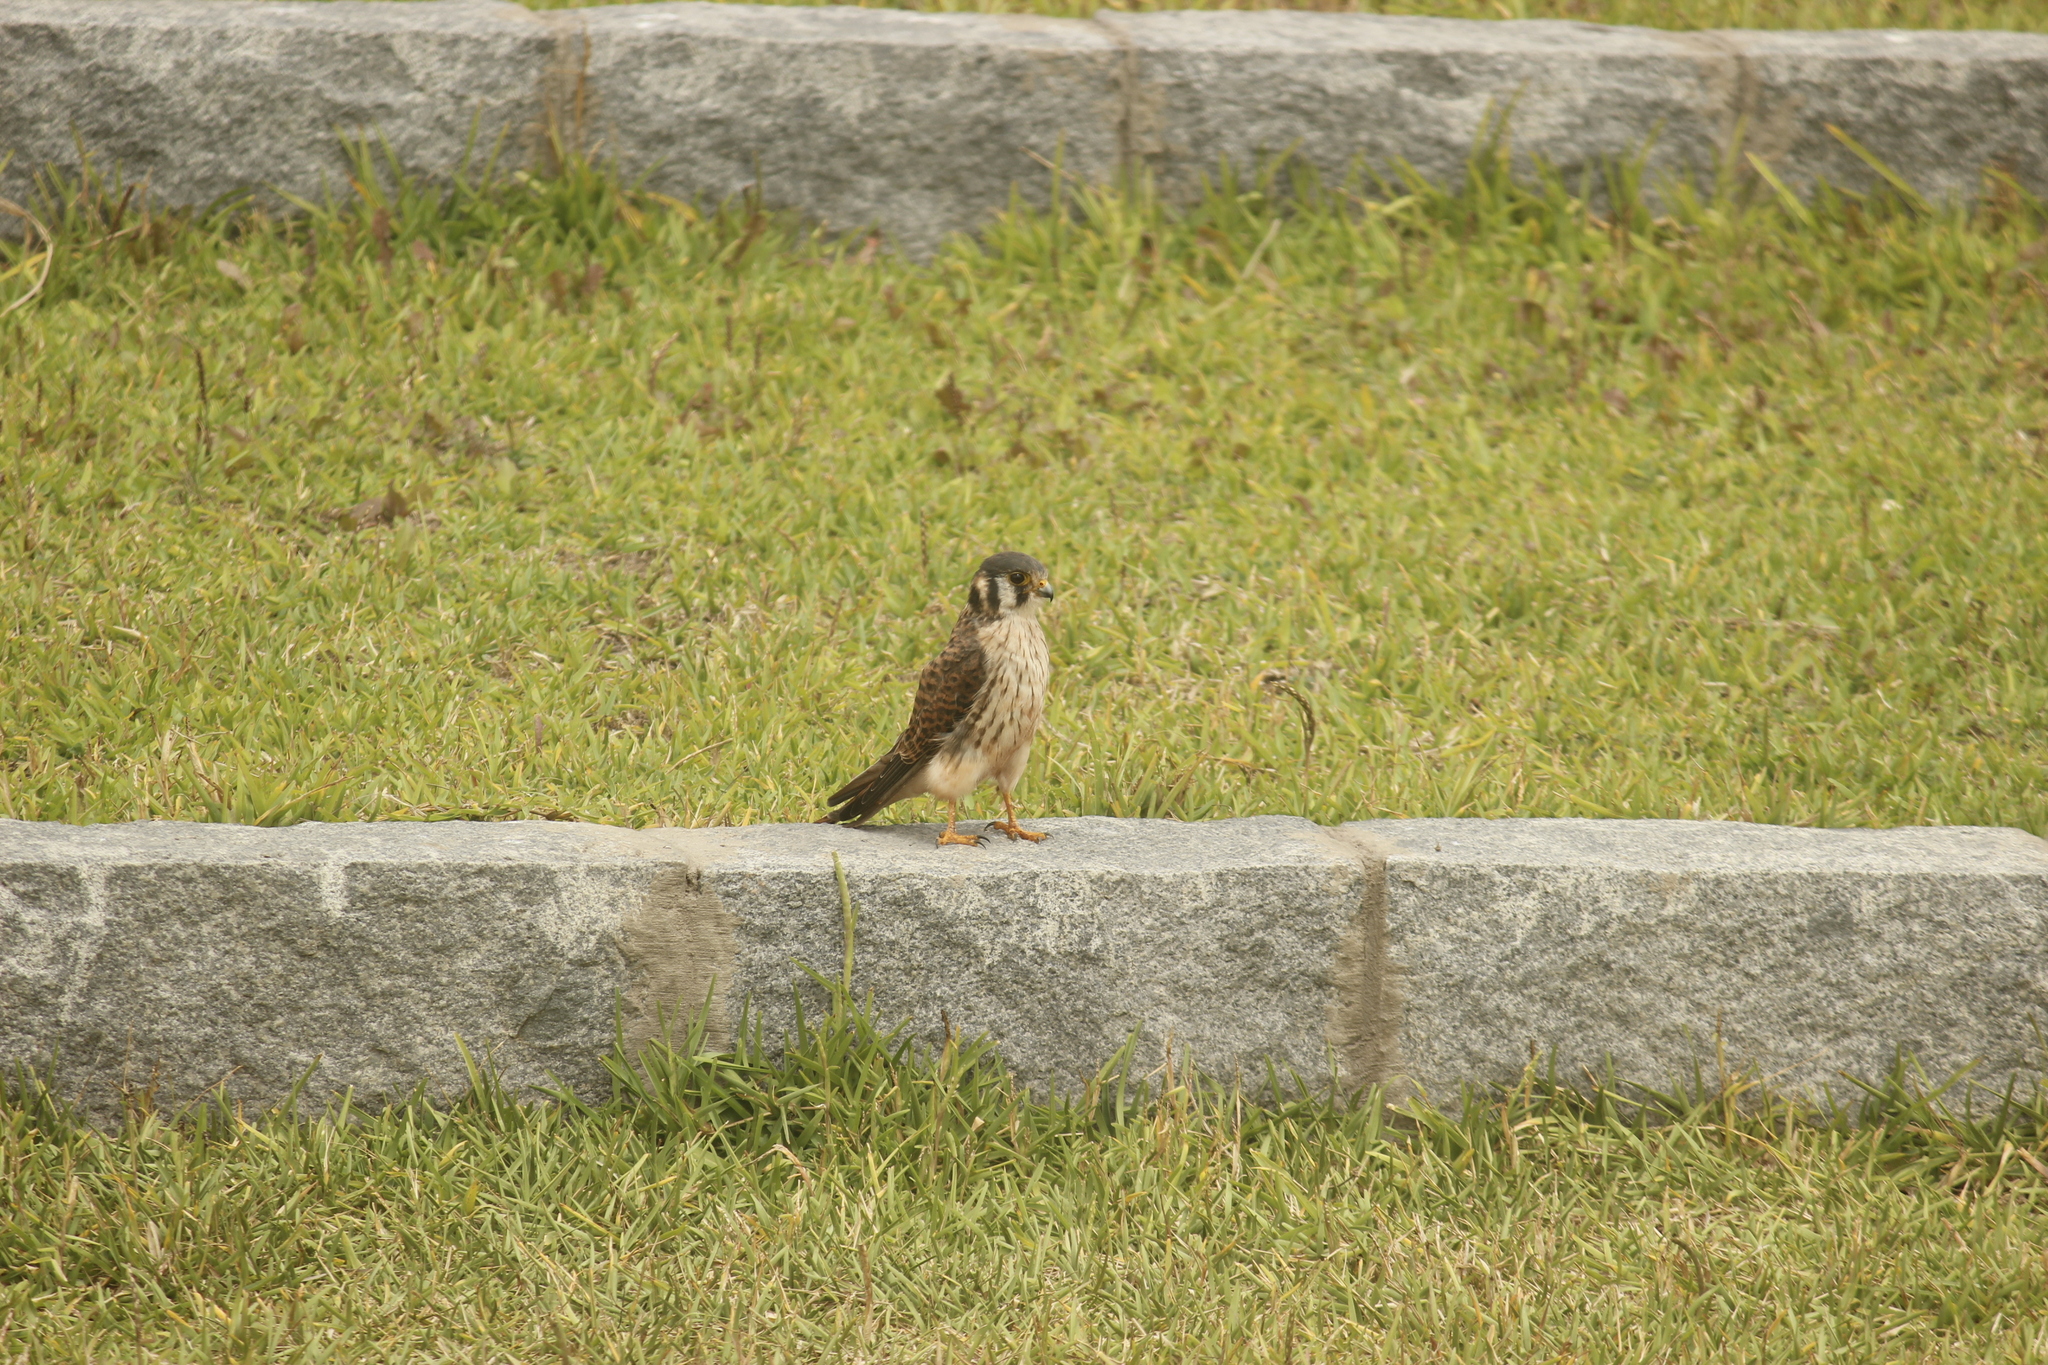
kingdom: Animalia
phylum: Chordata
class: Aves
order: Falconiformes
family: Falconidae
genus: Falco
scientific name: Falco sparverius
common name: American kestrel
